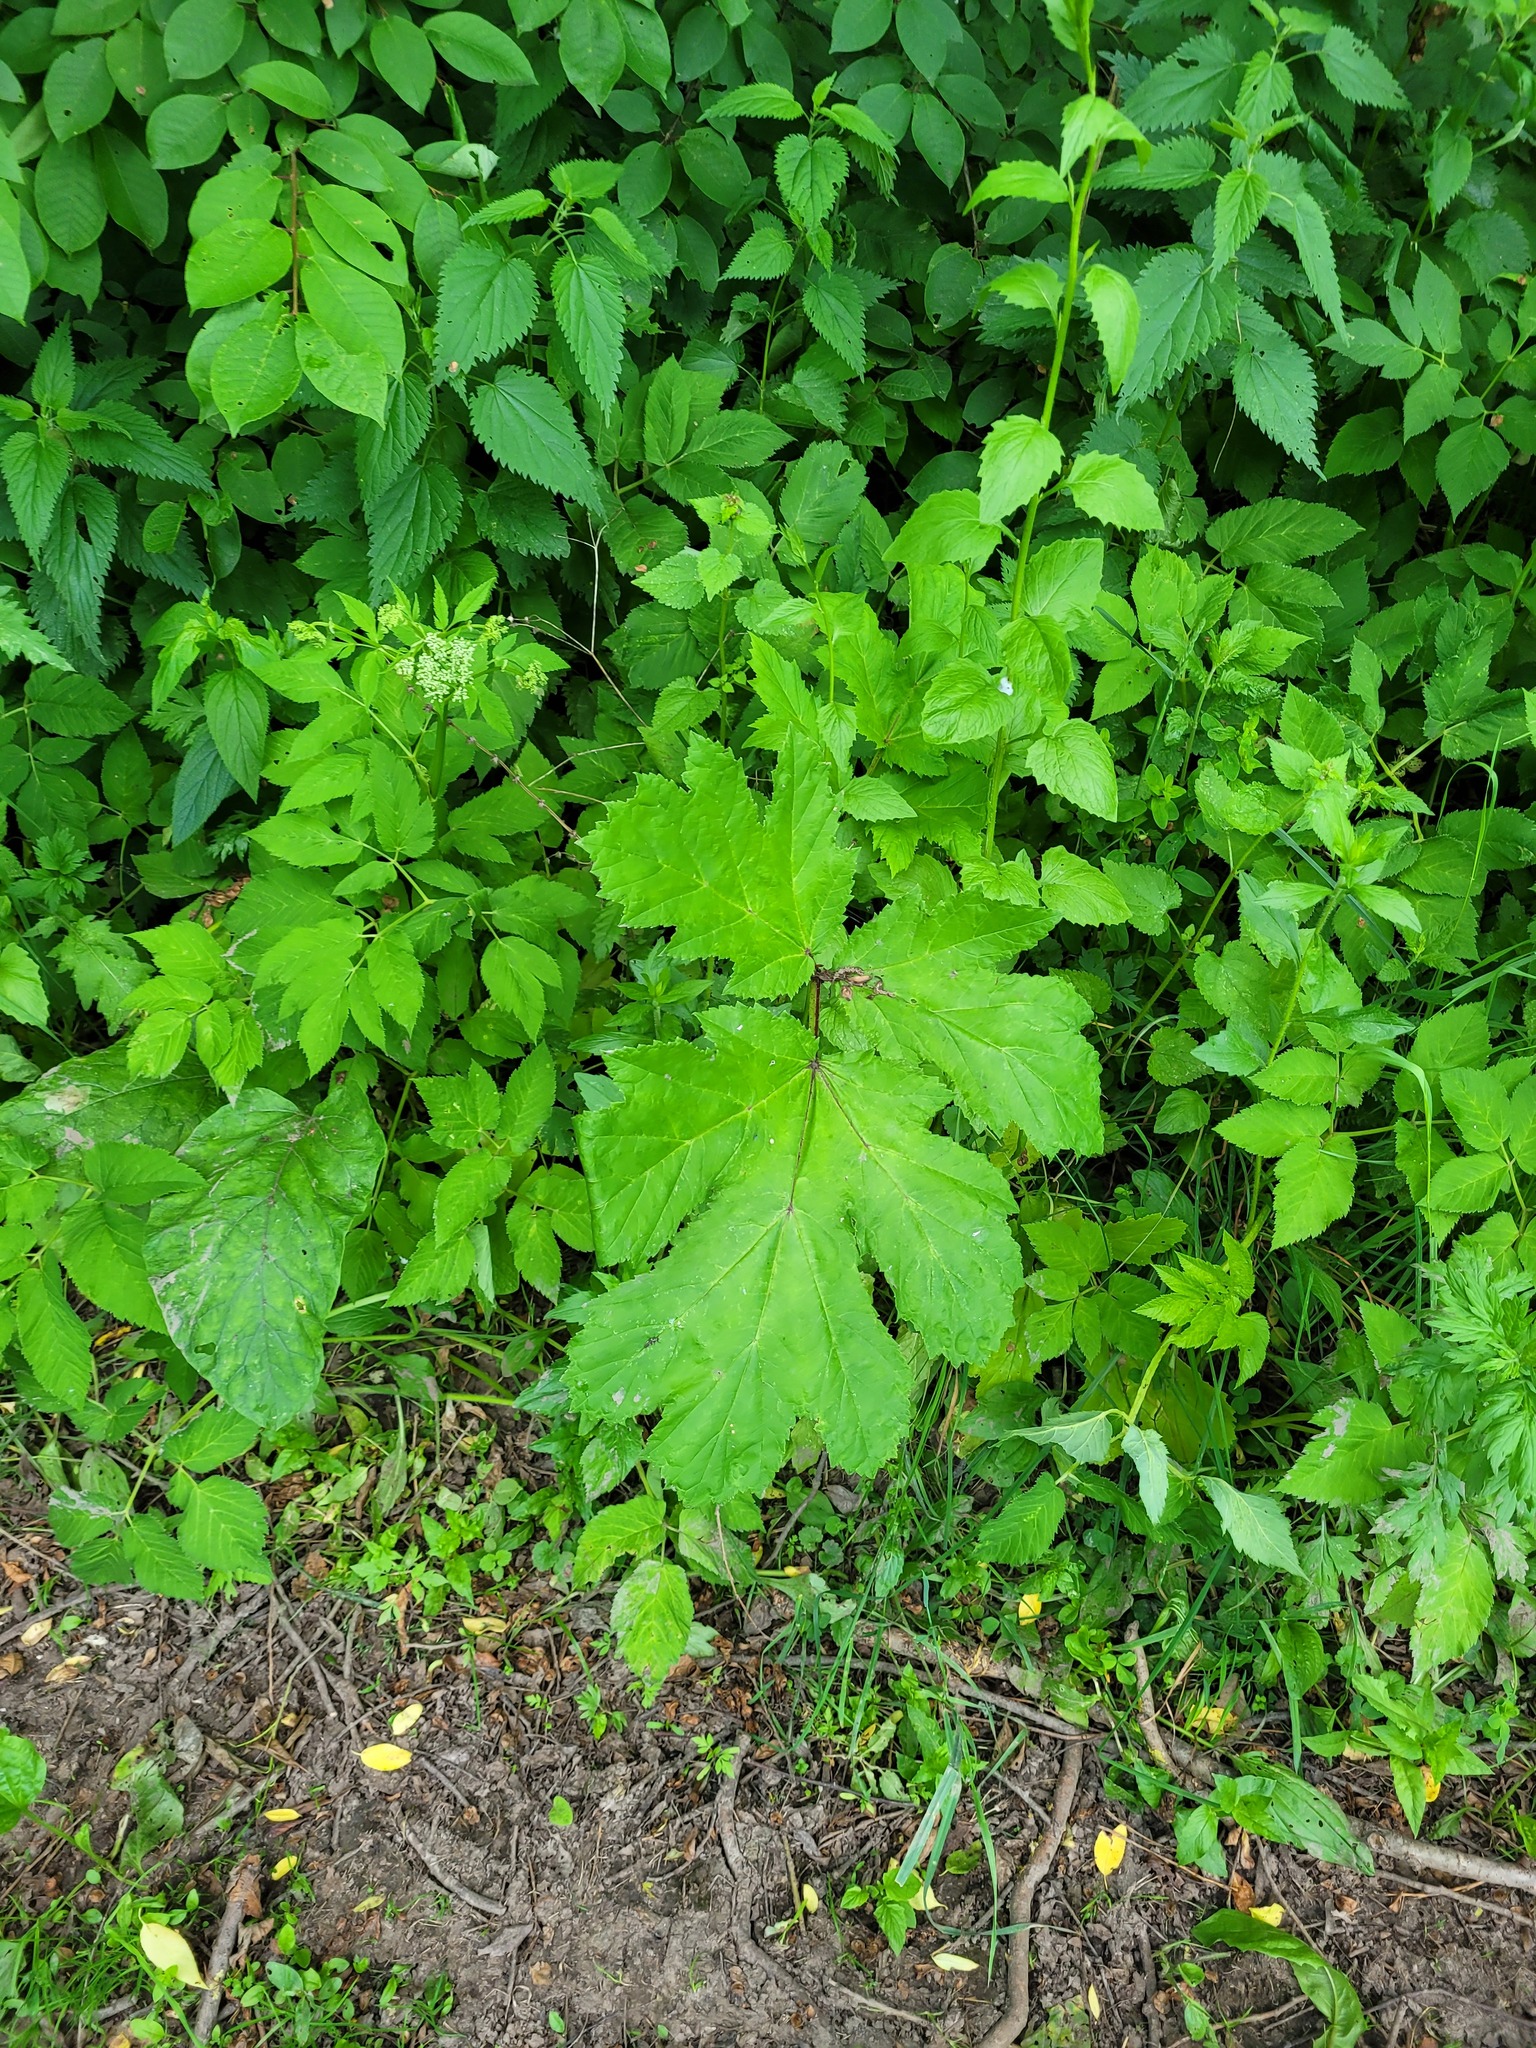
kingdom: Plantae
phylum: Tracheophyta
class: Magnoliopsida
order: Apiales
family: Apiaceae
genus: Heracleum
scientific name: Heracleum sosnowskyi
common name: Sosnowsky's hogweed
